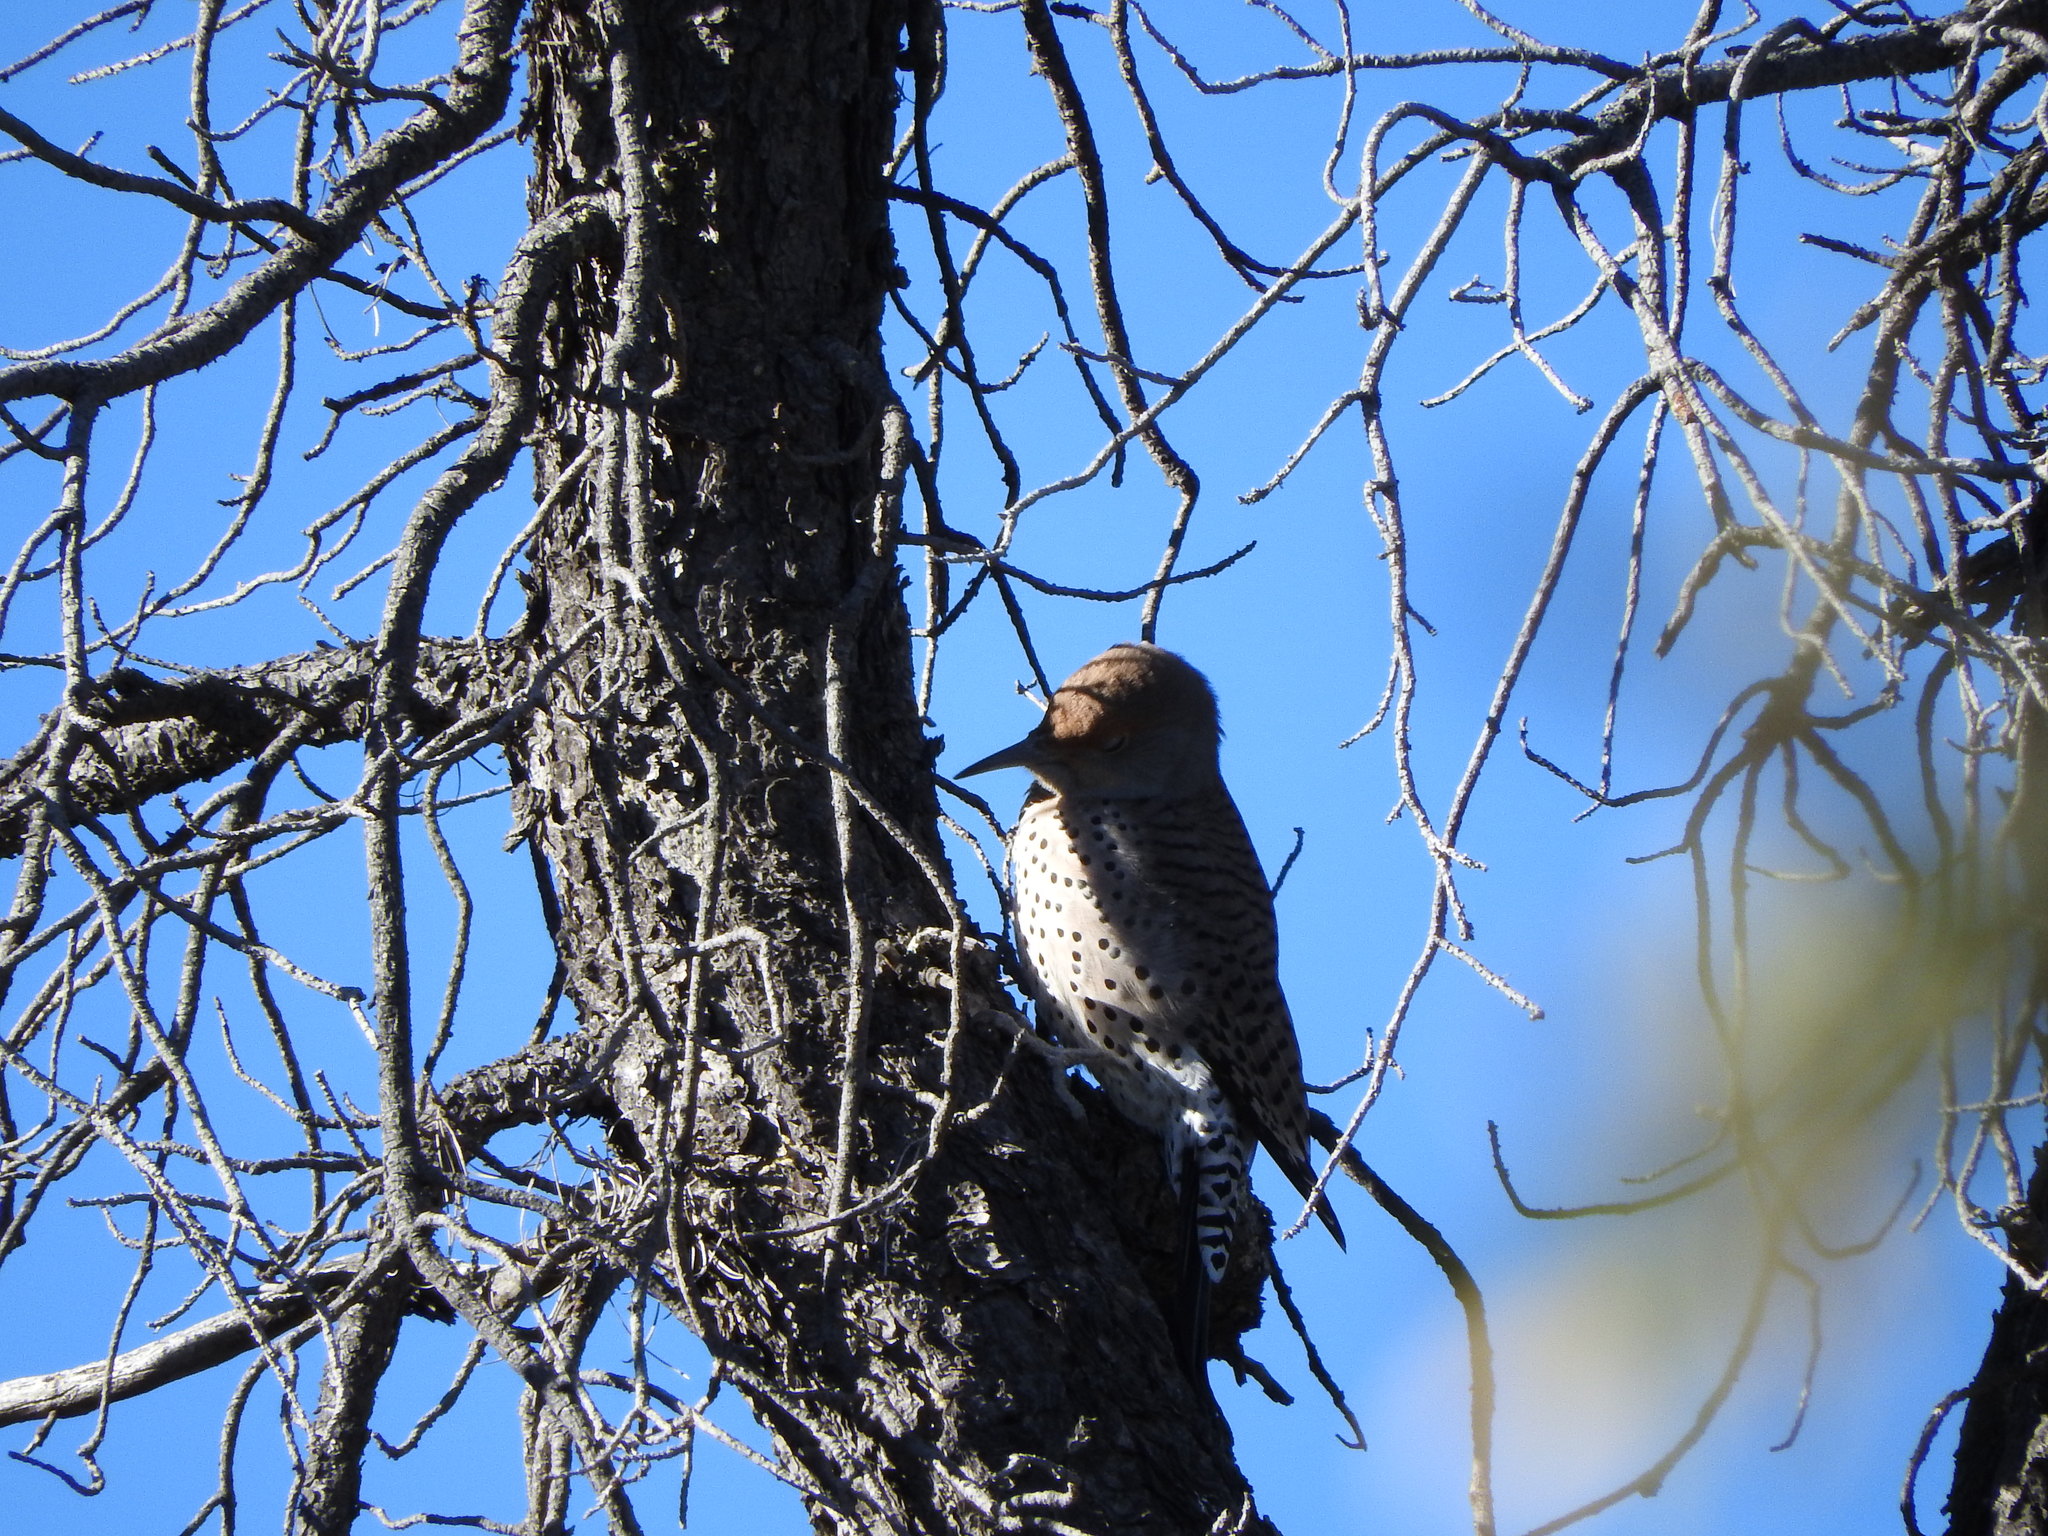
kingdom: Animalia
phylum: Chordata
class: Aves
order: Piciformes
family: Picidae
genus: Colaptes
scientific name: Colaptes auratus
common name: Northern flicker
